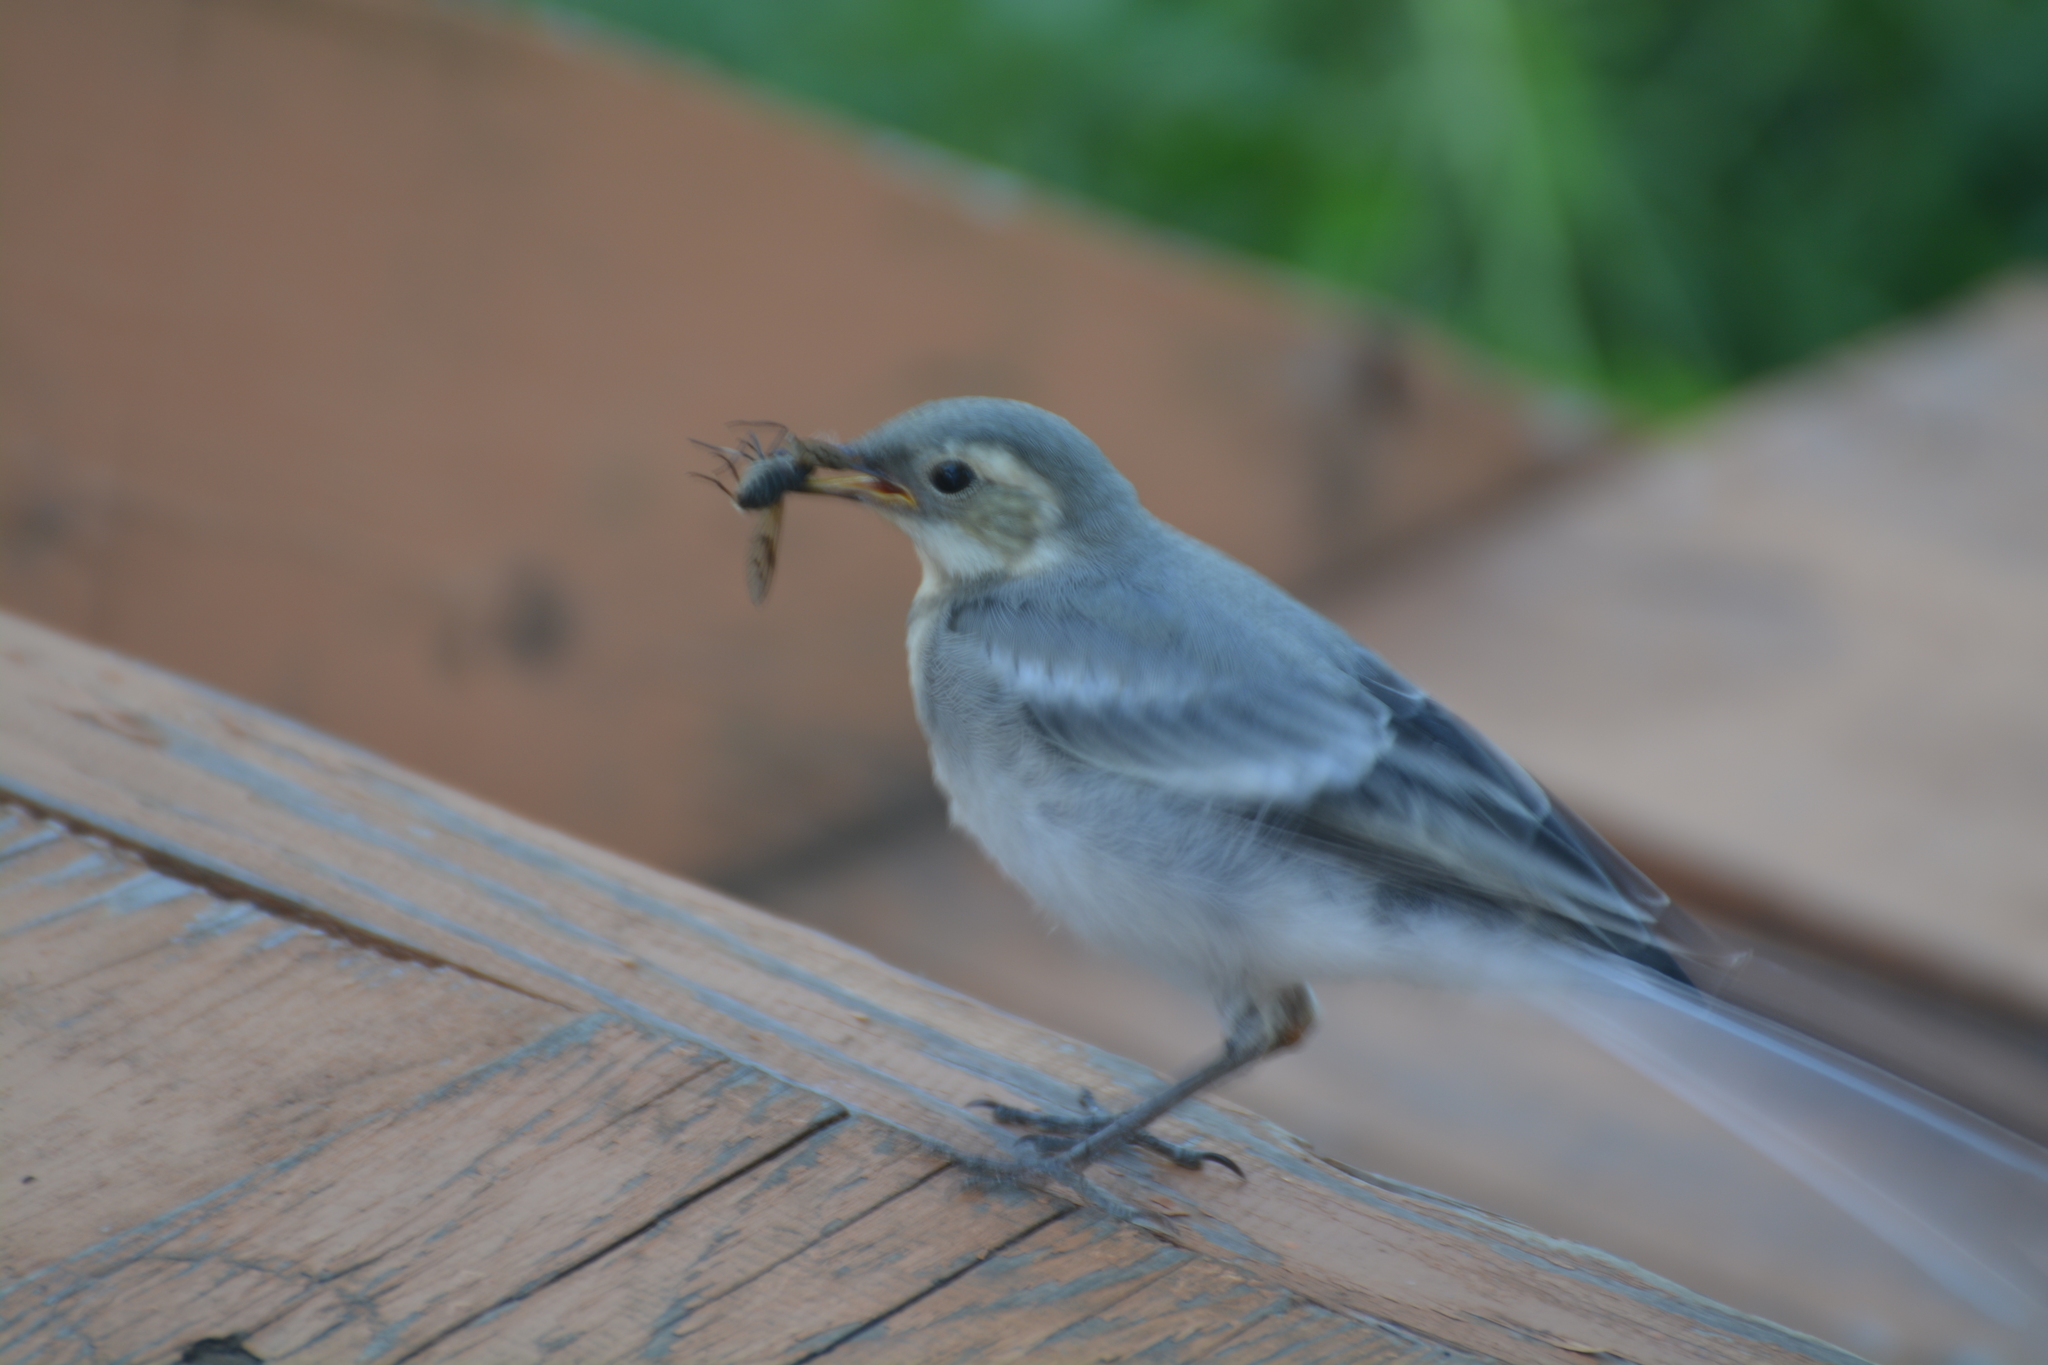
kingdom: Animalia
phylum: Chordata
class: Aves
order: Passeriformes
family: Motacillidae
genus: Motacilla
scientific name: Motacilla alba
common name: White wagtail
